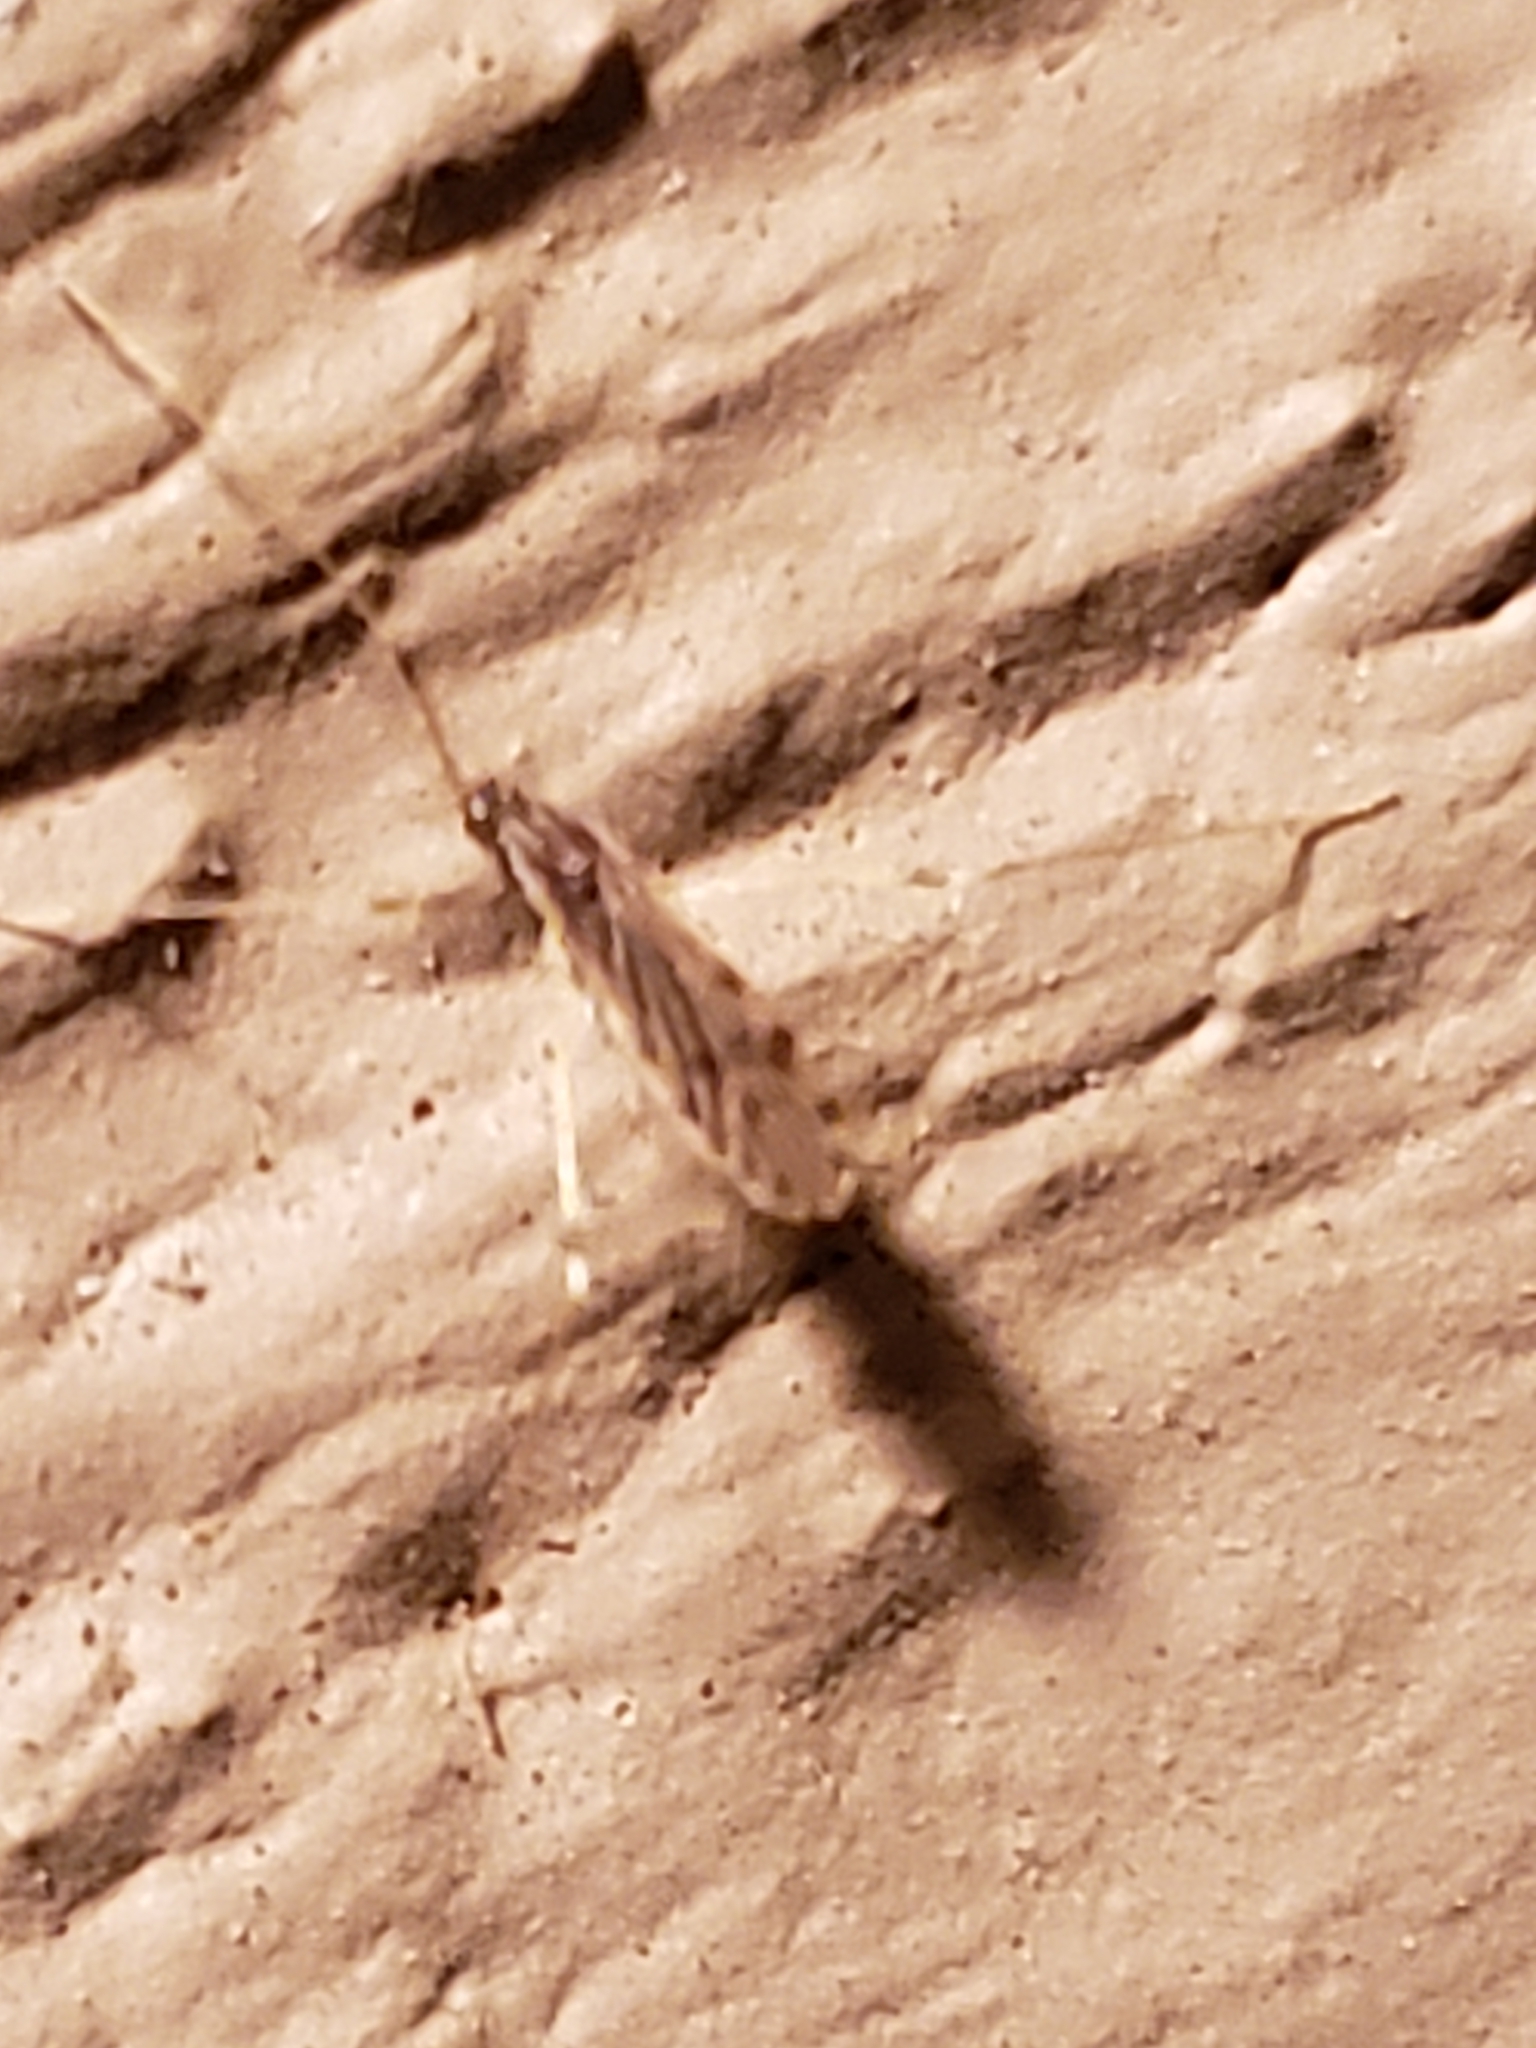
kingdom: Animalia
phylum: Arthropoda
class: Insecta
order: Diptera
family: Limoniidae
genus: Erioptera
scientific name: Erioptera parva
